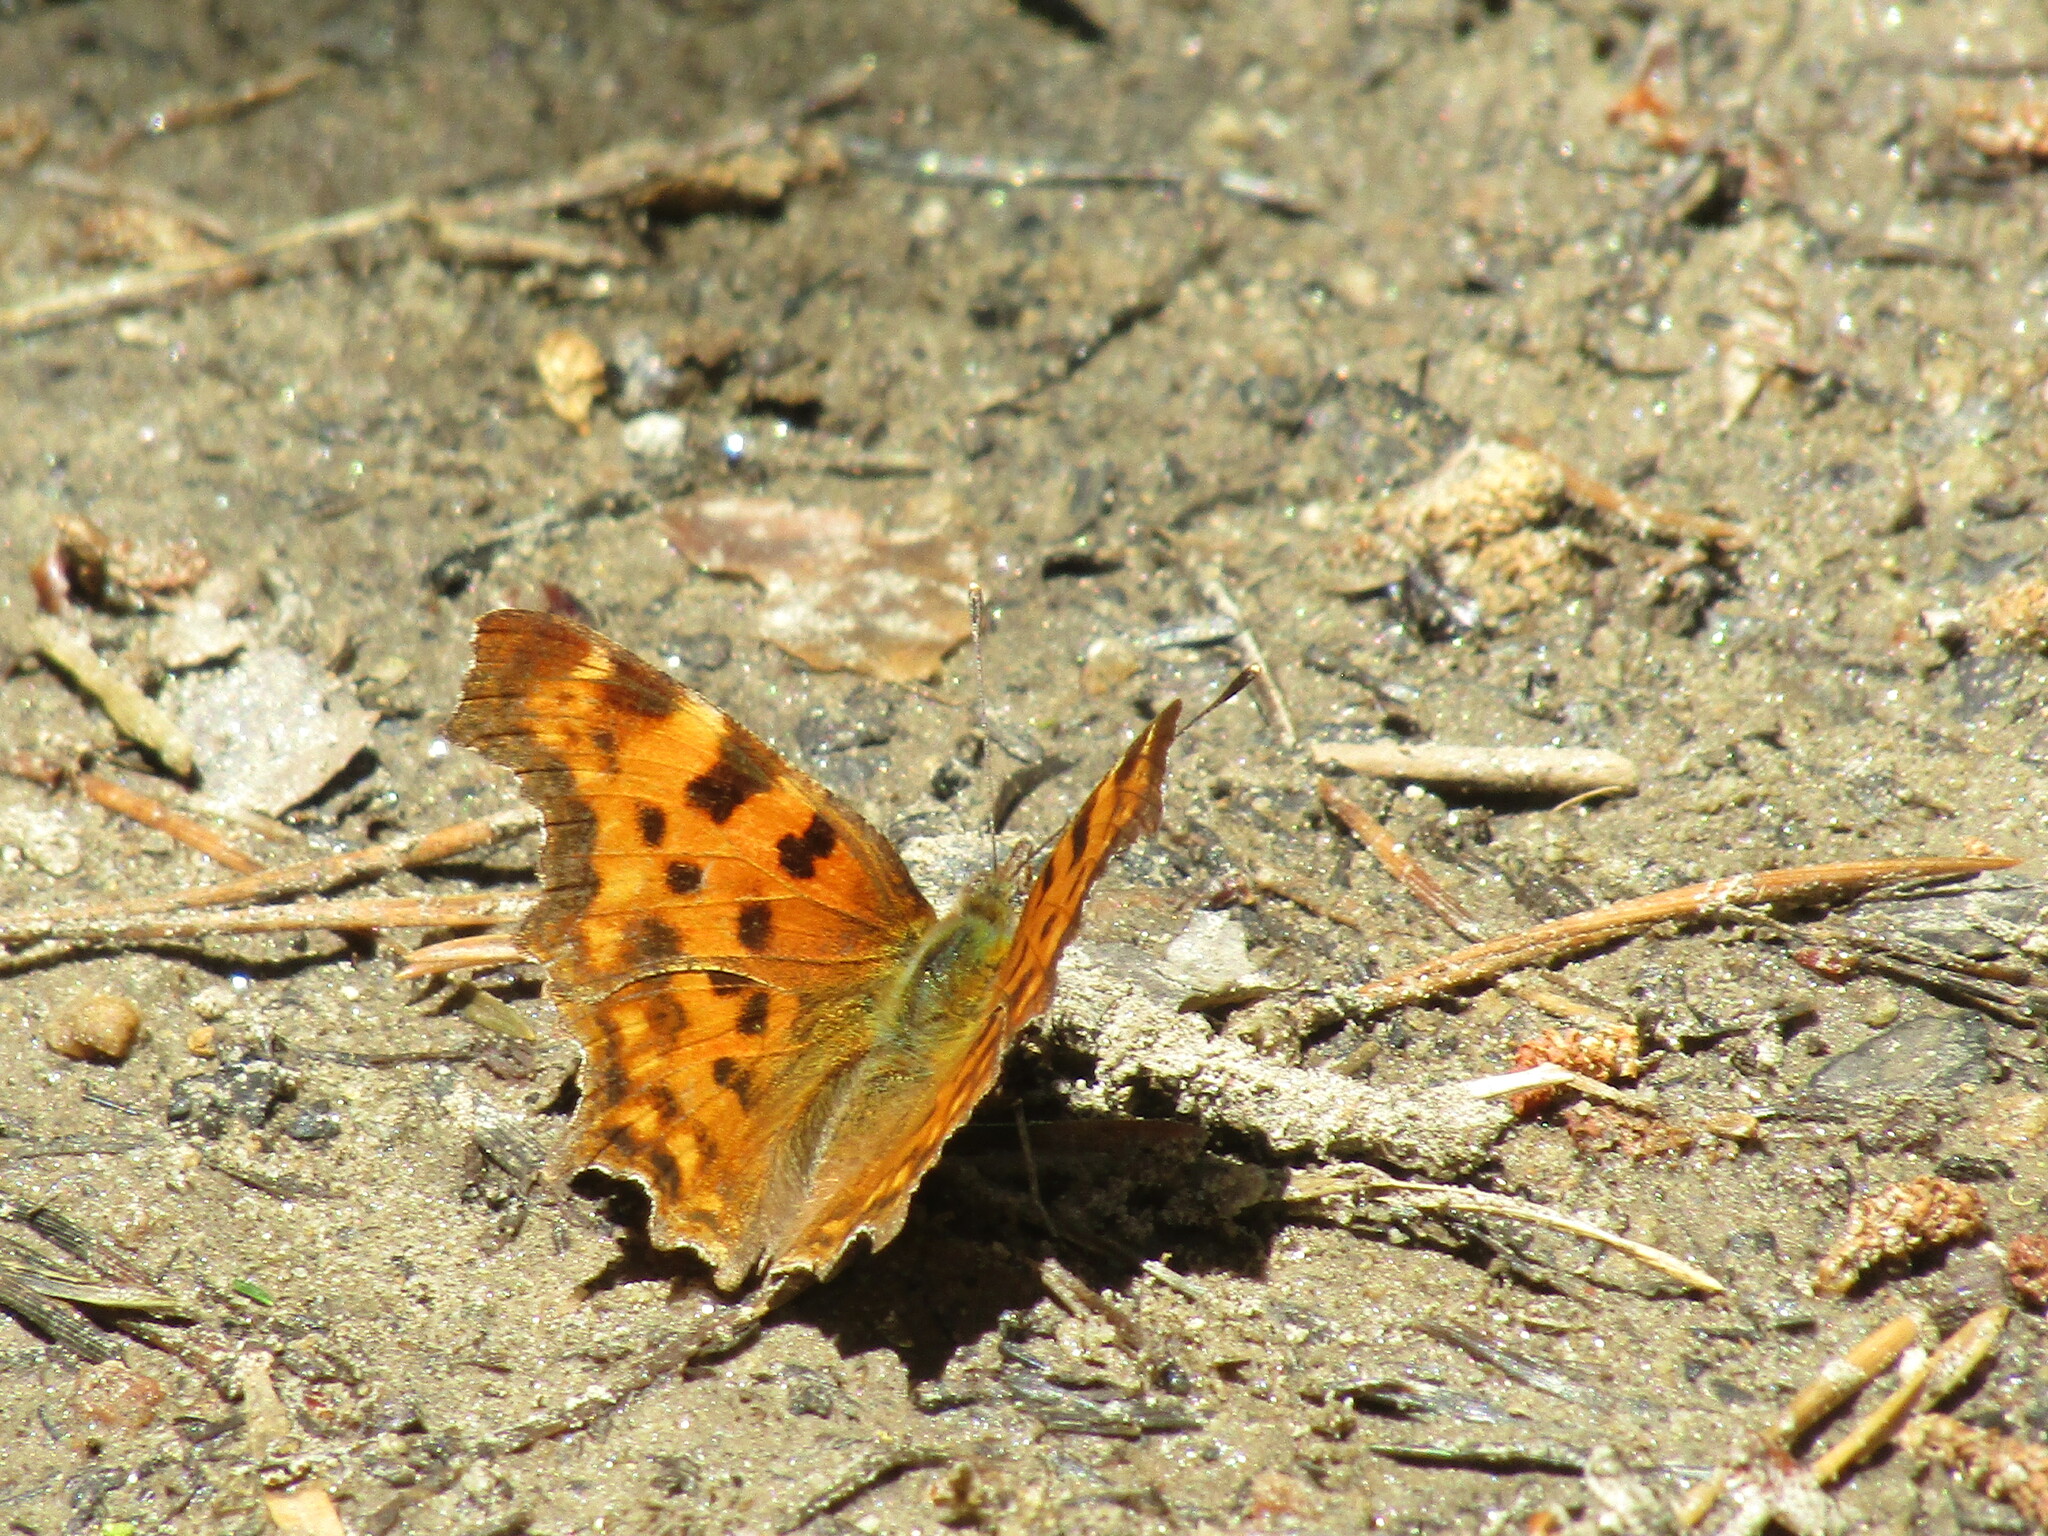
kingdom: Animalia
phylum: Arthropoda
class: Insecta
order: Lepidoptera
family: Nymphalidae
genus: Polygonia
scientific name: Polygonia c-album
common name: Comma
